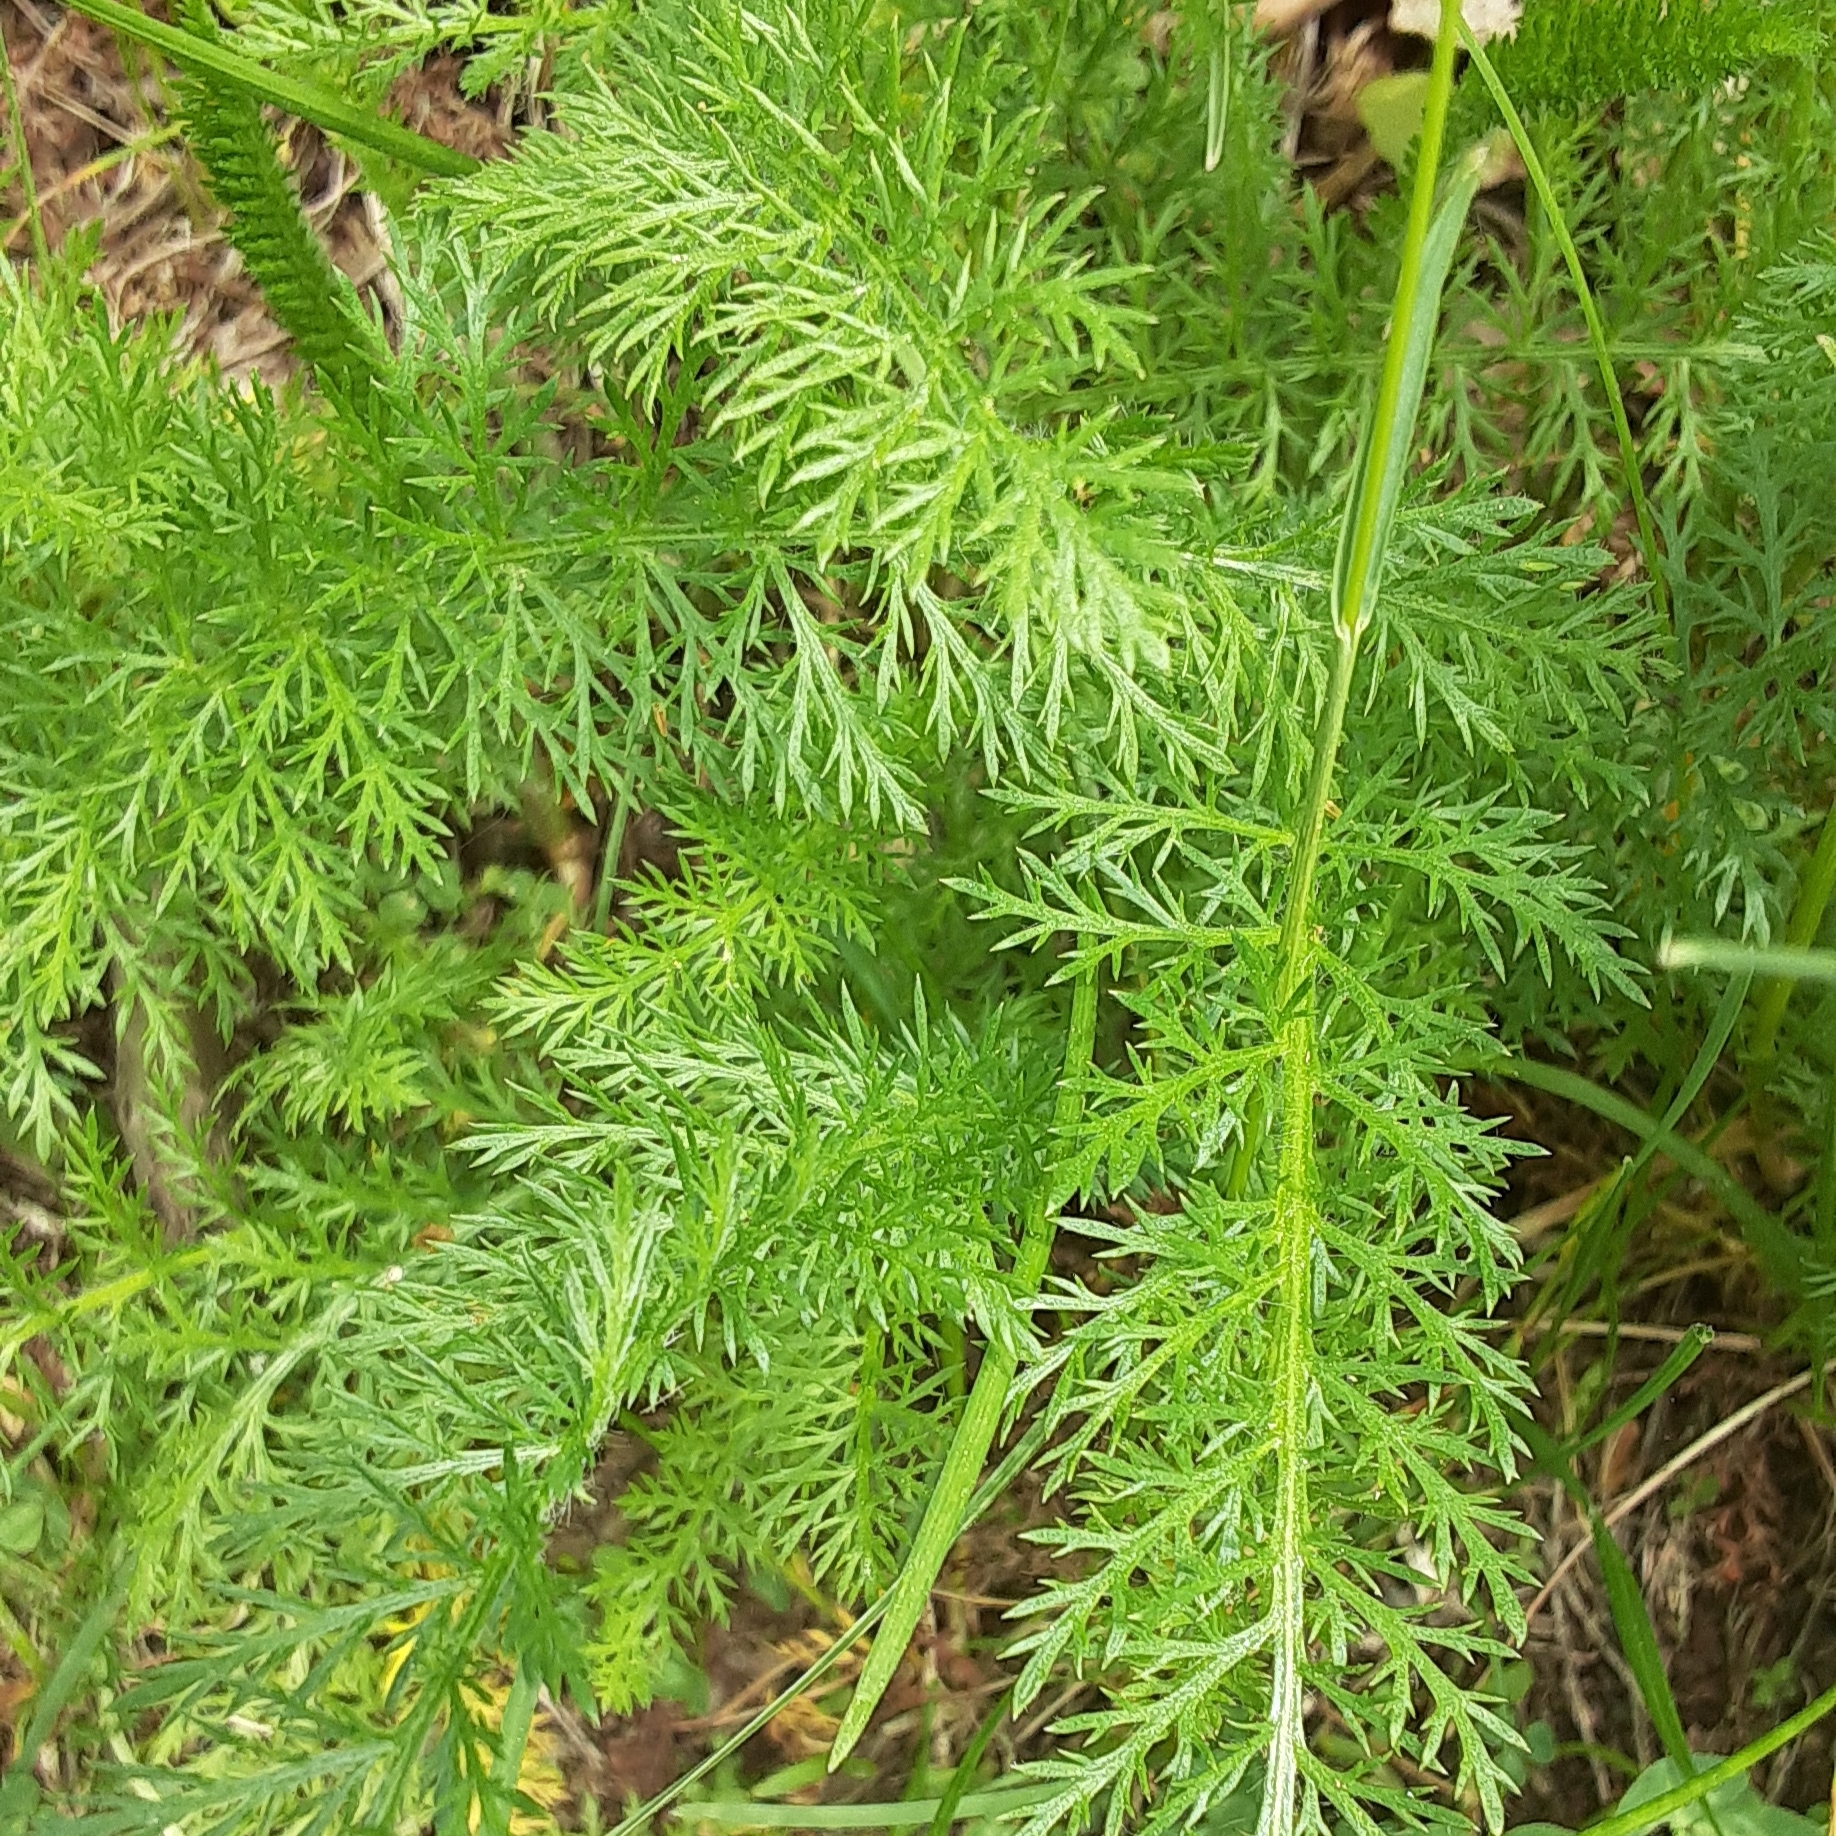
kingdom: Plantae
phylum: Tracheophyta
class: Magnoliopsida
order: Asterales
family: Asteraceae
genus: Achillea
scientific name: Achillea millefolium
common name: Yarrow
